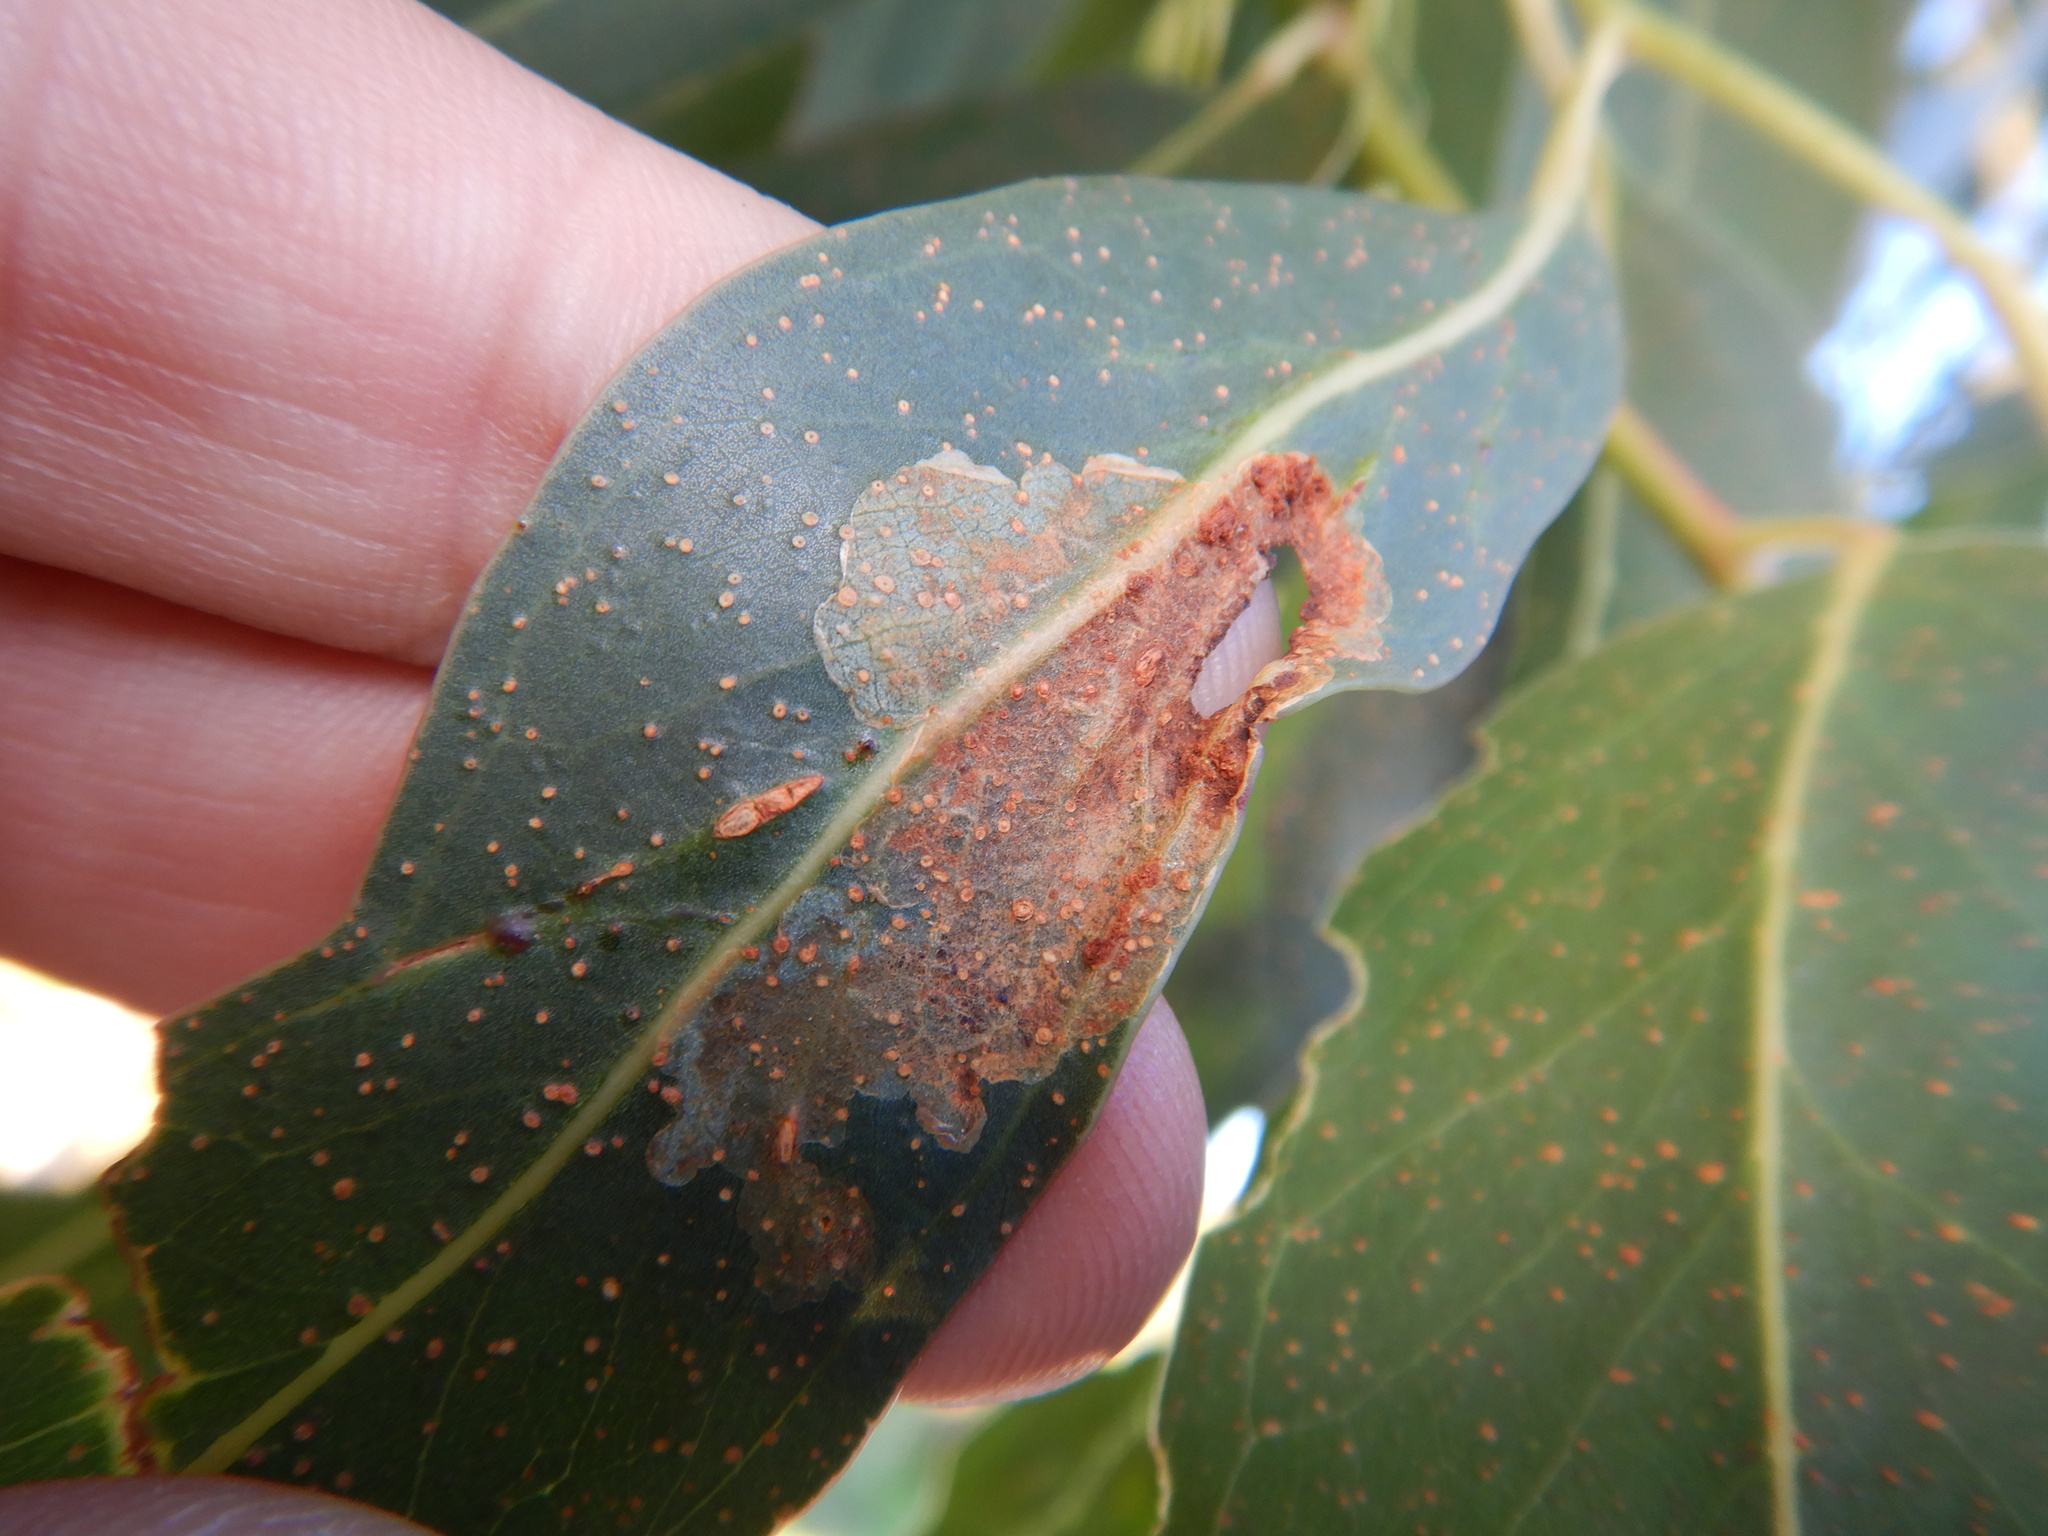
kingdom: Animalia
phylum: Arthropoda
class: Insecta
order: Hymenoptera
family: Pergidae
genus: Phylacteophaga
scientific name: Phylacteophaga froggatti
